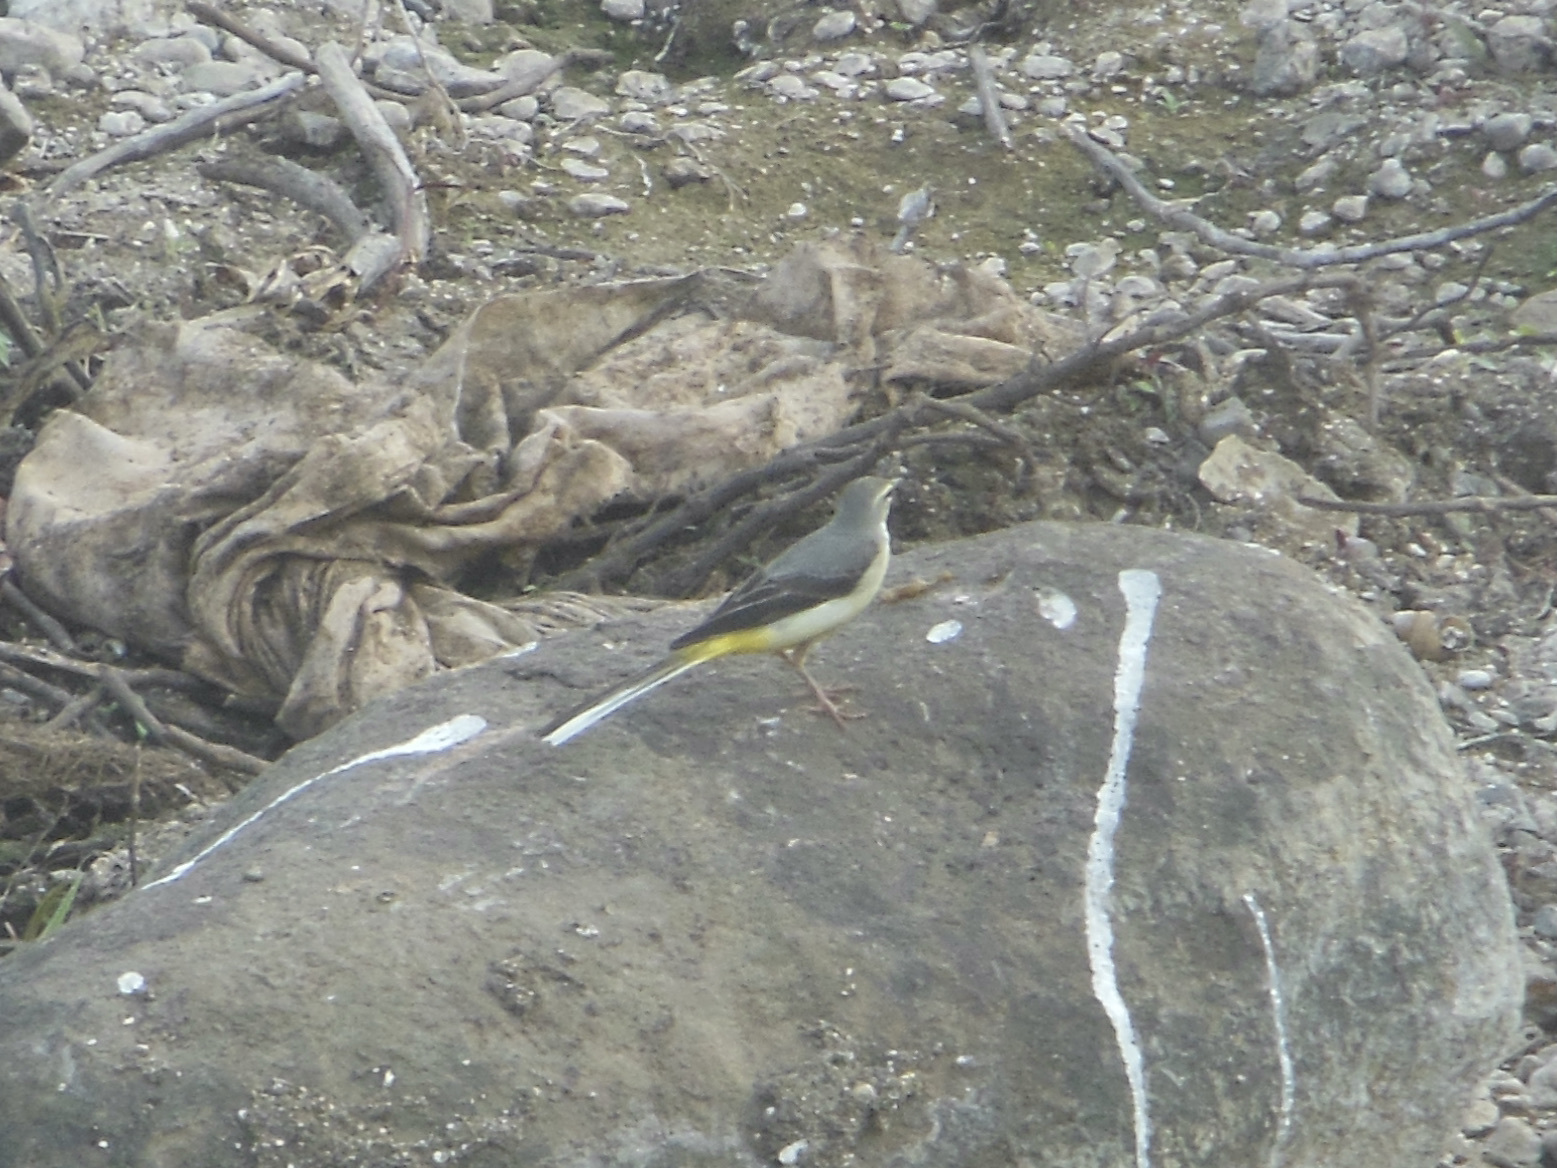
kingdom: Animalia
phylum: Chordata
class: Aves
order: Passeriformes
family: Motacillidae
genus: Motacilla
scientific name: Motacilla cinerea
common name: Grey wagtail
